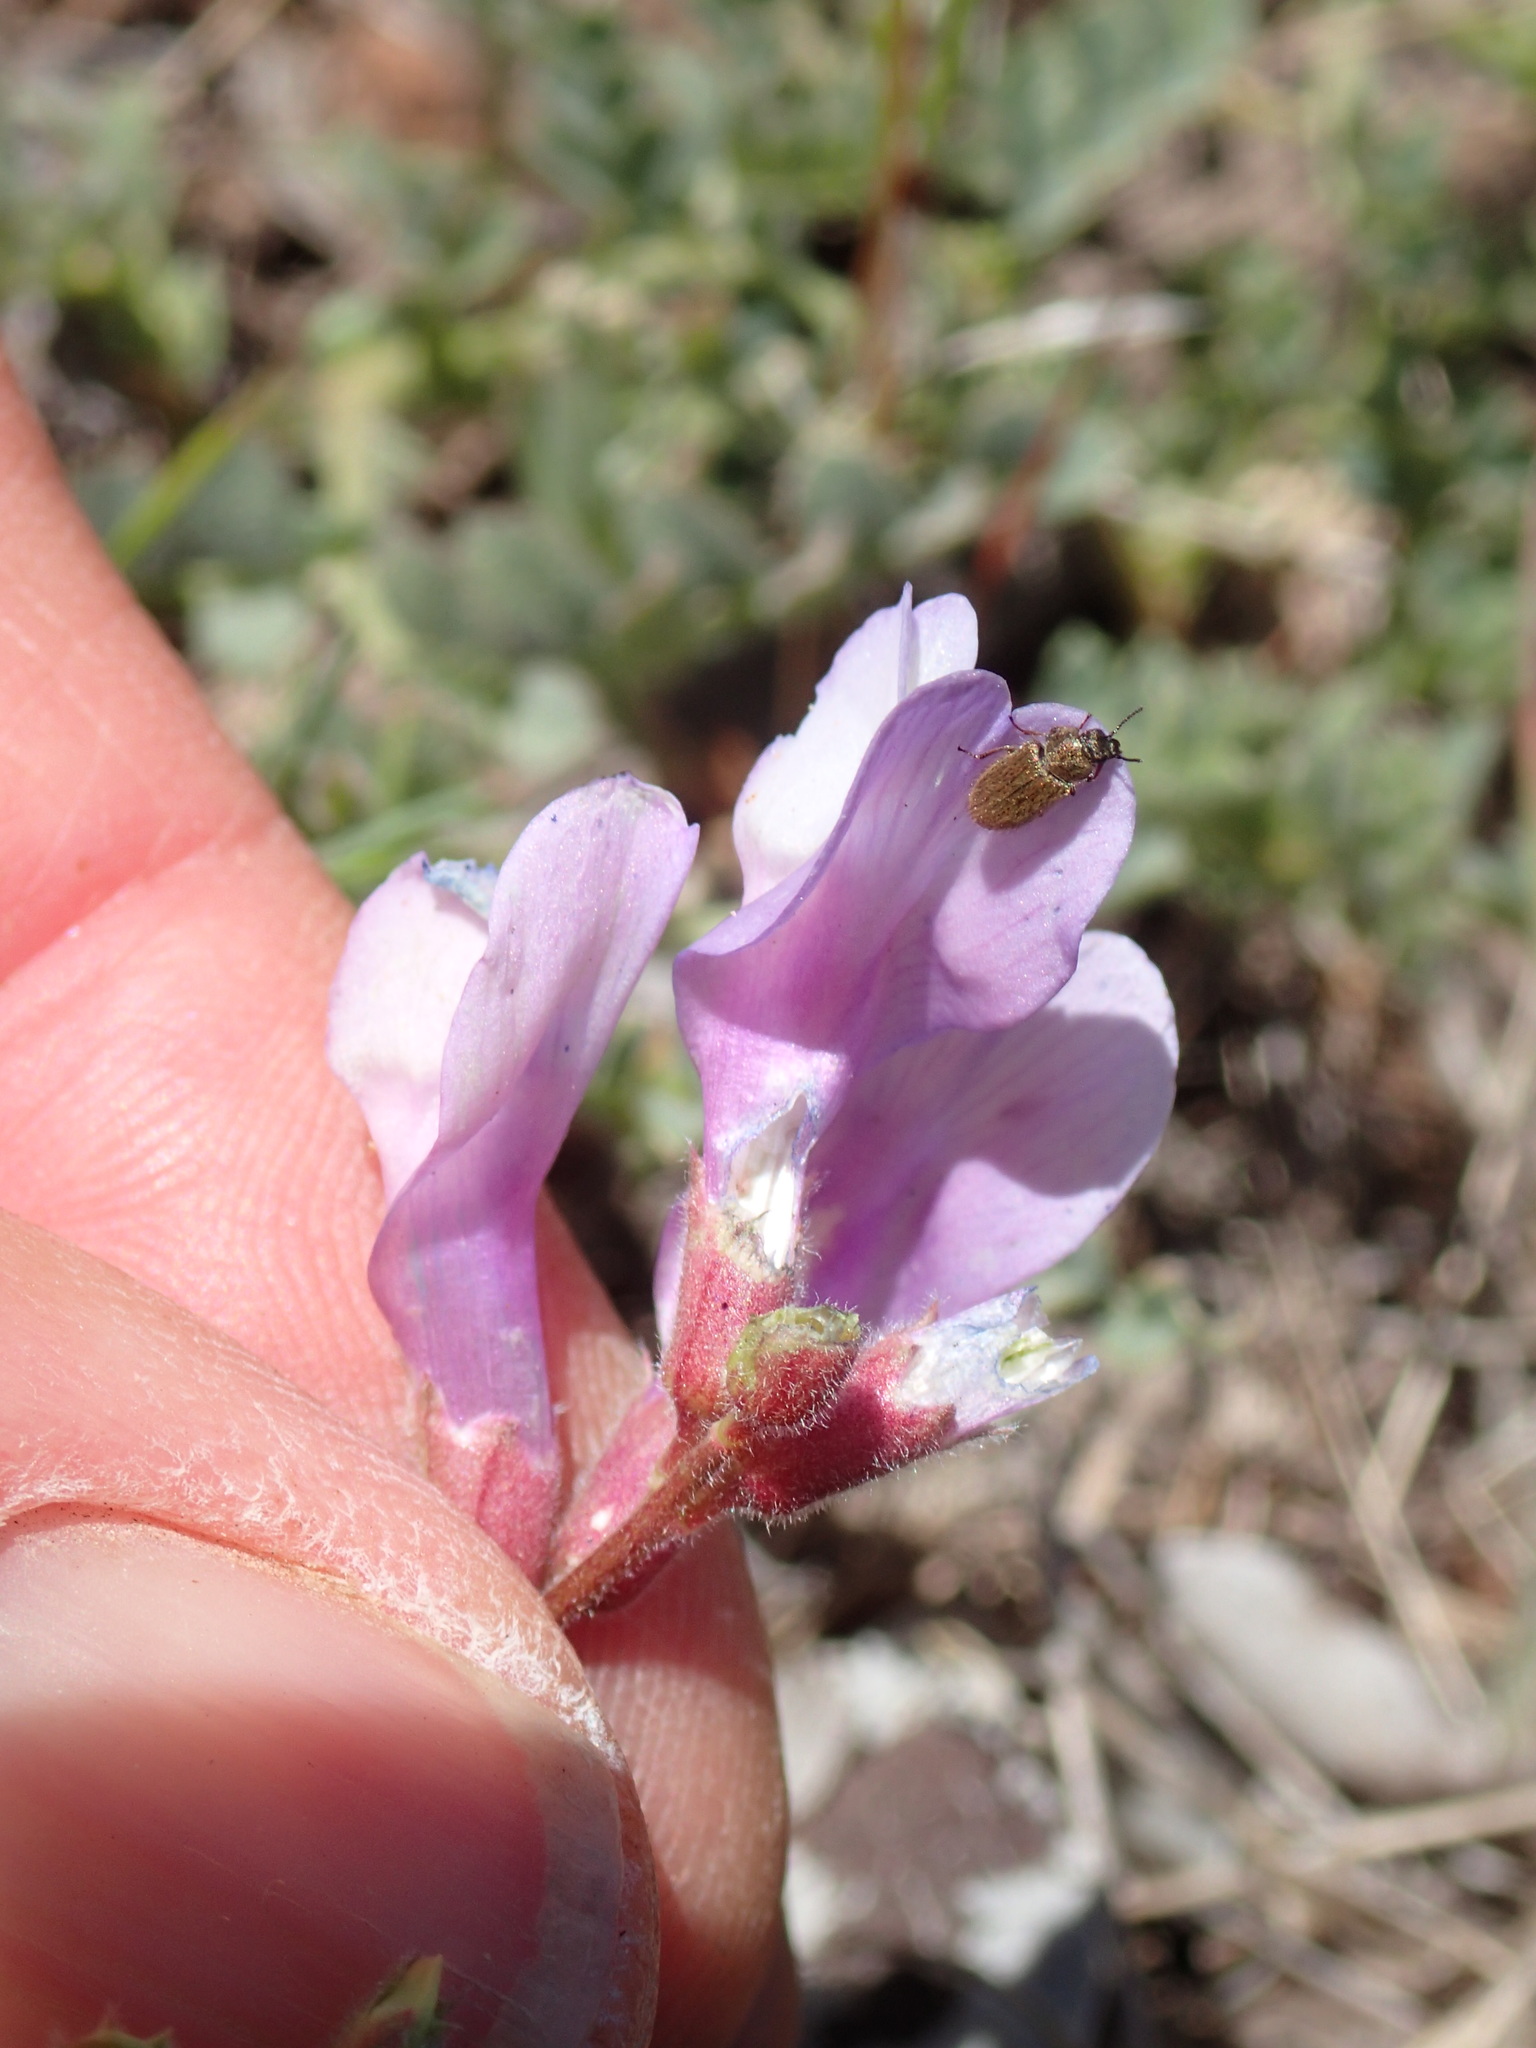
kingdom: Plantae
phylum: Tracheophyta
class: Magnoliopsida
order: Fabales
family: Fabaceae
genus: Astragalus
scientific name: Astragalus lentiginosus
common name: Freckled milkvetch
